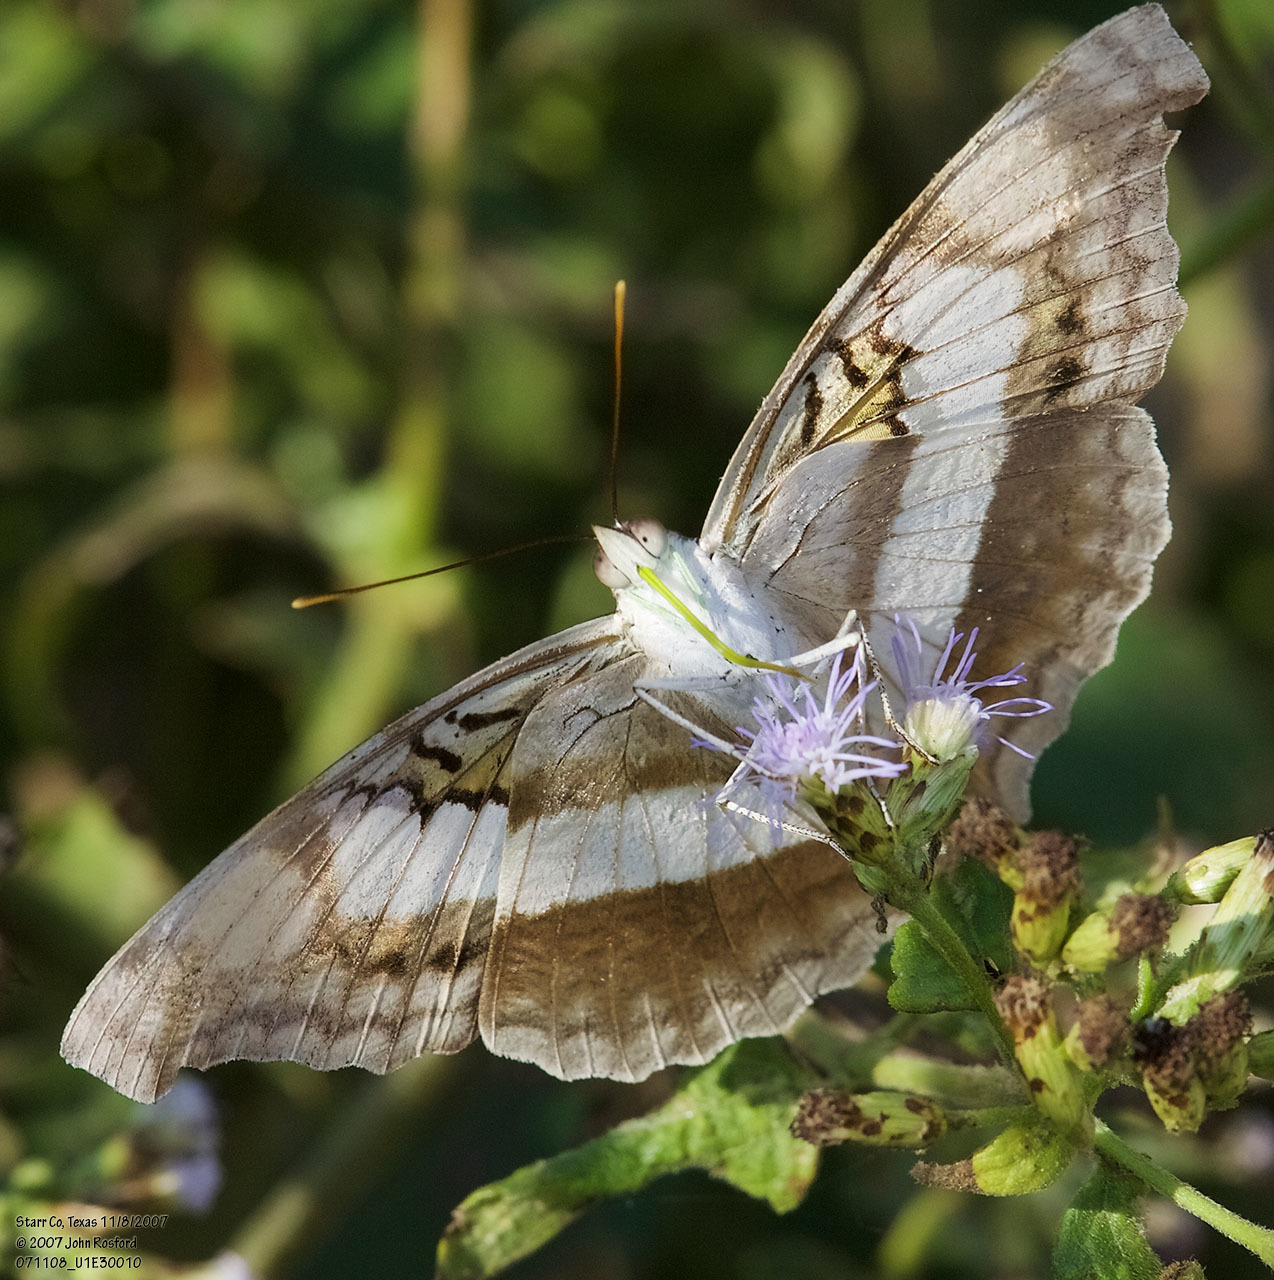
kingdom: Animalia
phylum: Arthropoda
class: Insecta
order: Lepidoptera
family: Nymphalidae
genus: Doxocopa
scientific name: Doxocopa laure
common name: Silver emperor
